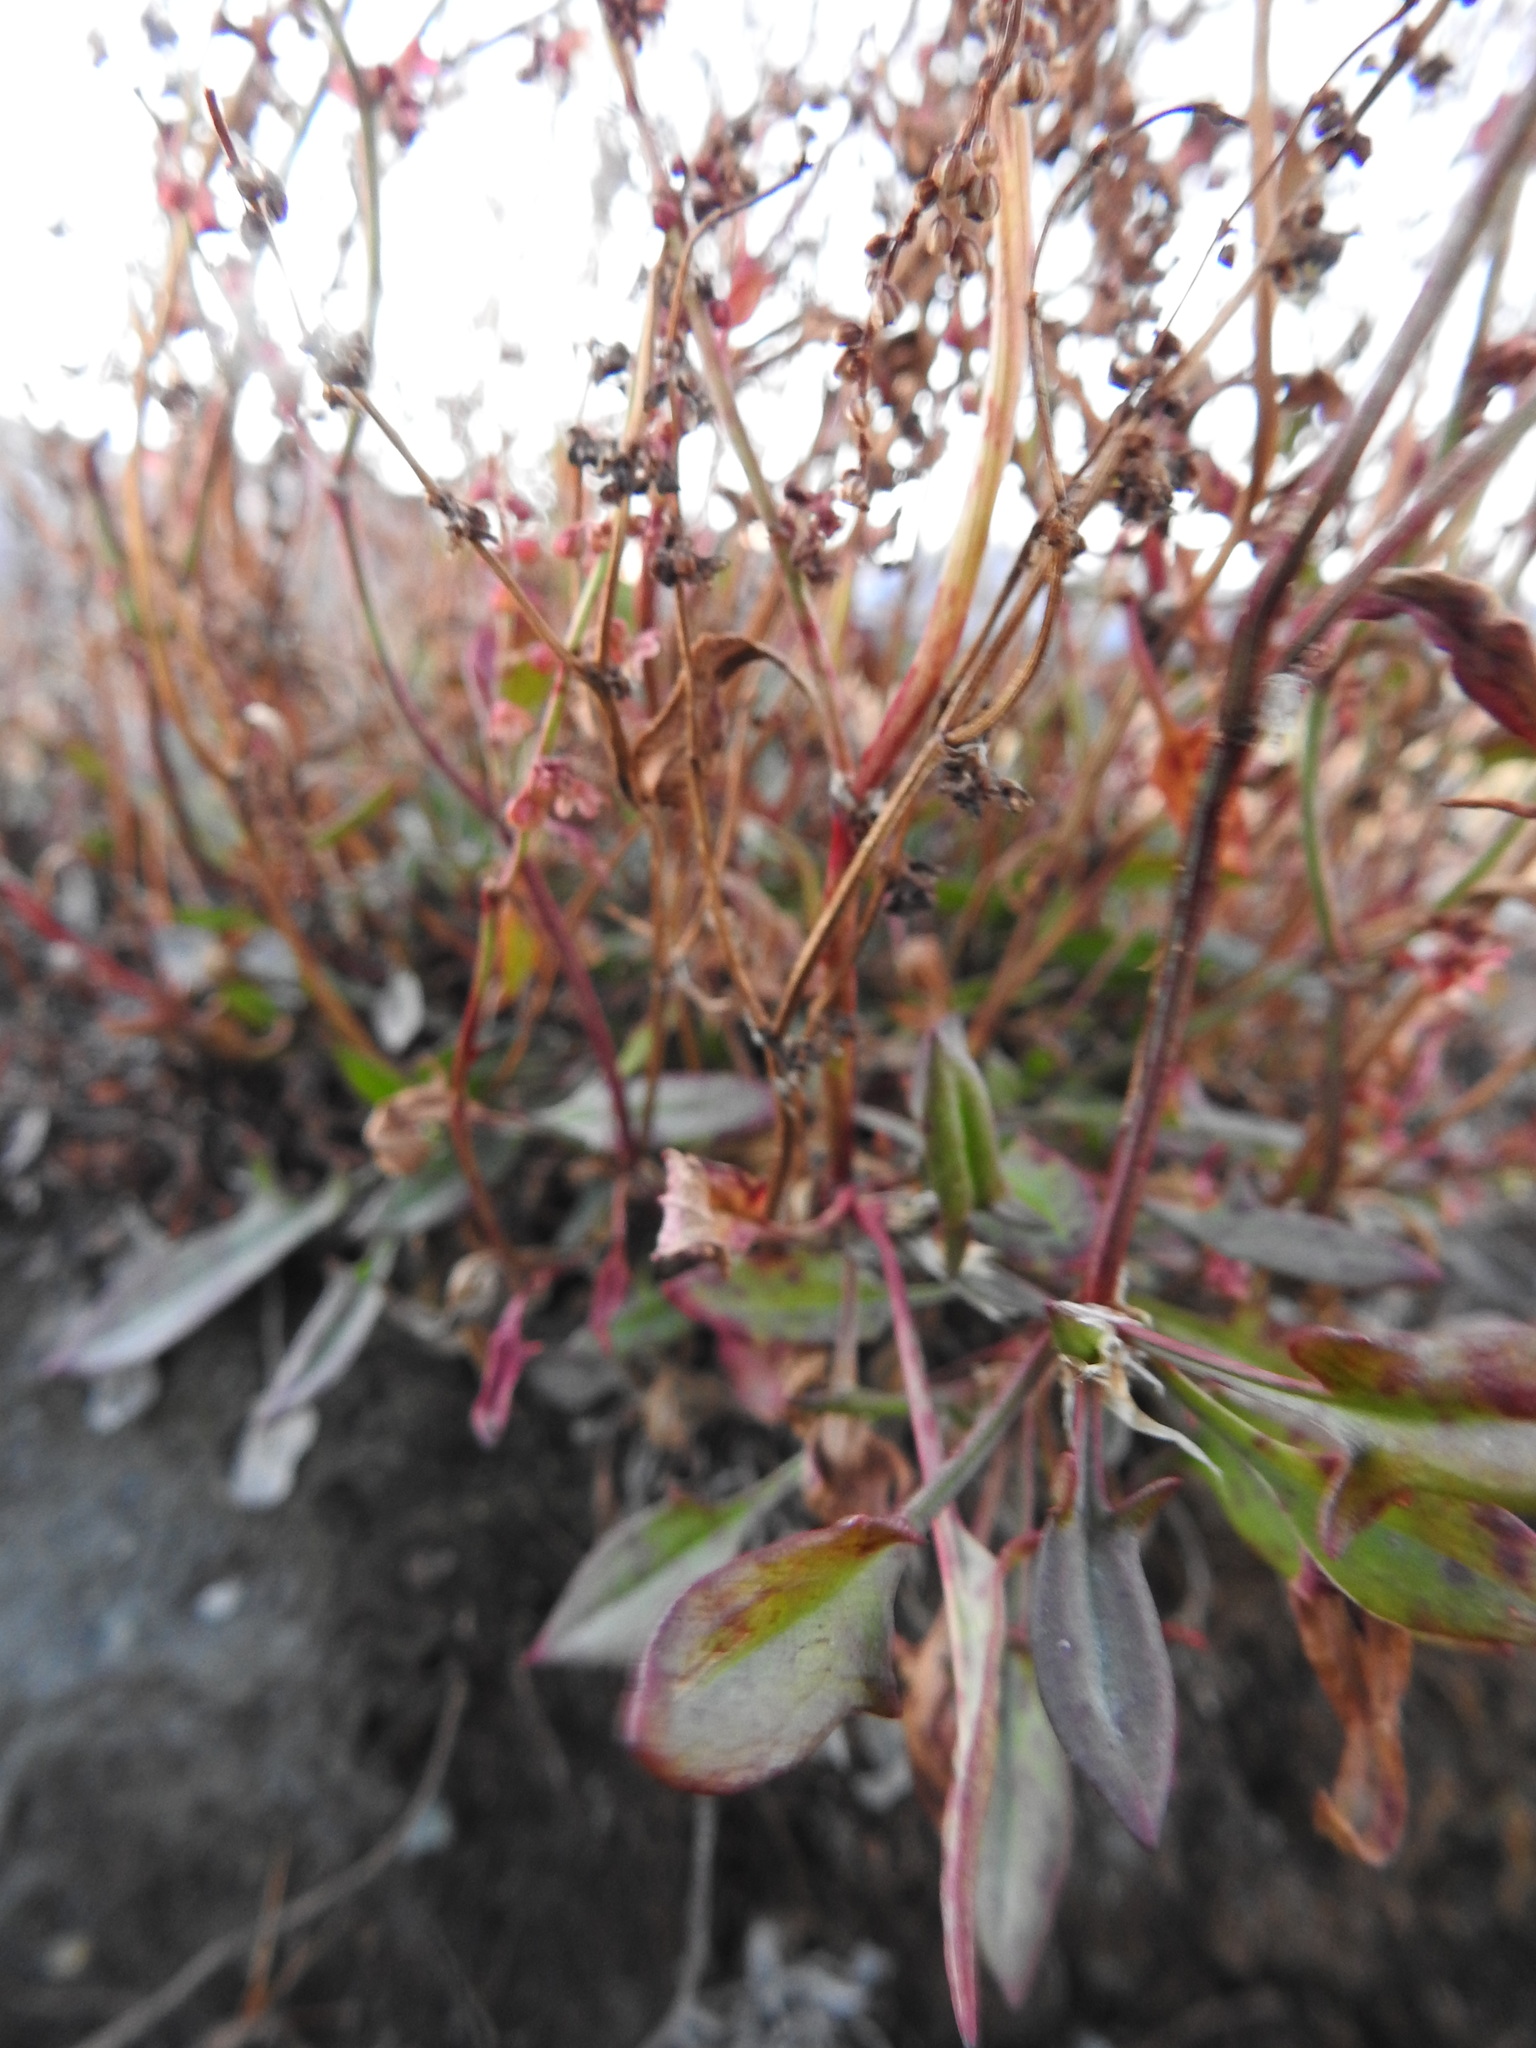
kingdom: Plantae
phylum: Tracheophyta
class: Magnoliopsida
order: Caryophyllales
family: Polygonaceae
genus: Rumex
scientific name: Rumex acetosella
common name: Common sheep sorrel
